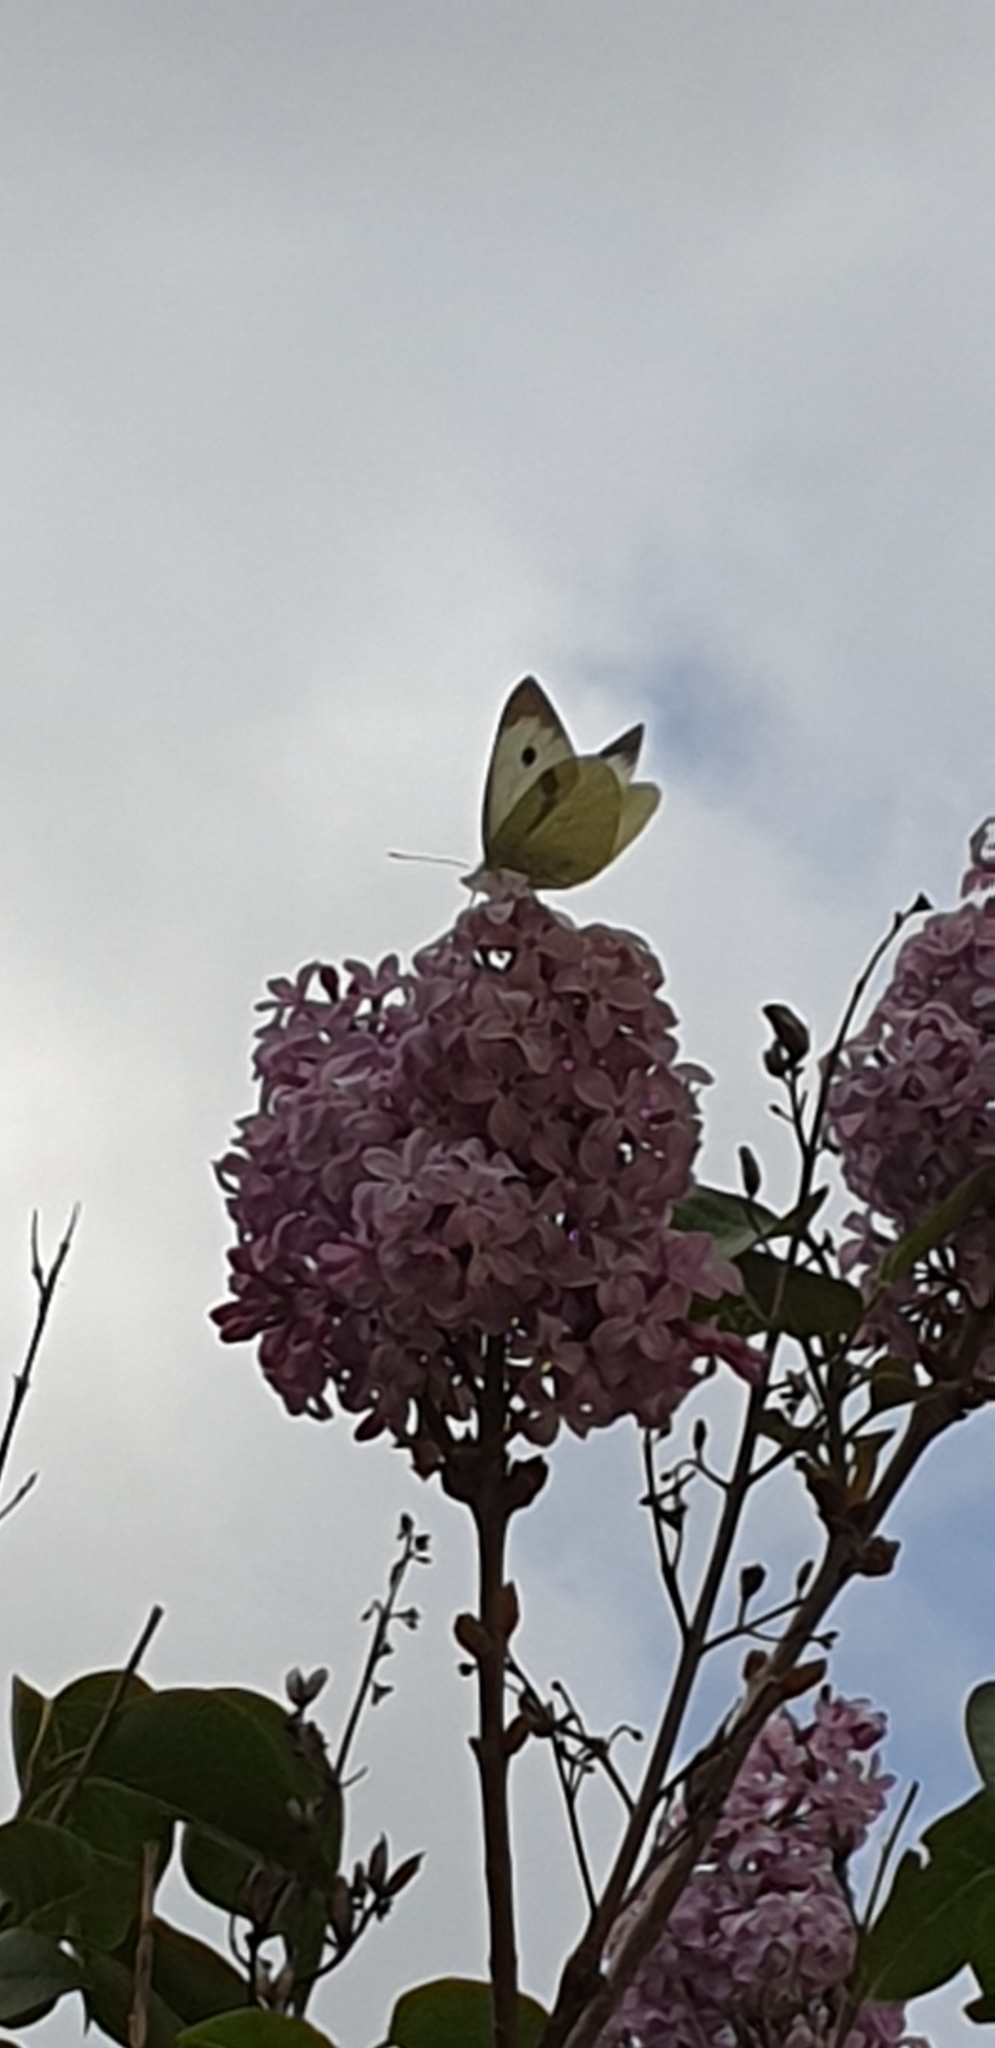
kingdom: Animalia
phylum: Arthropoda
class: Insecta
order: Lepidoptera
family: Pieridae
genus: Pieris
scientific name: Pieris brassicae
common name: Large white
